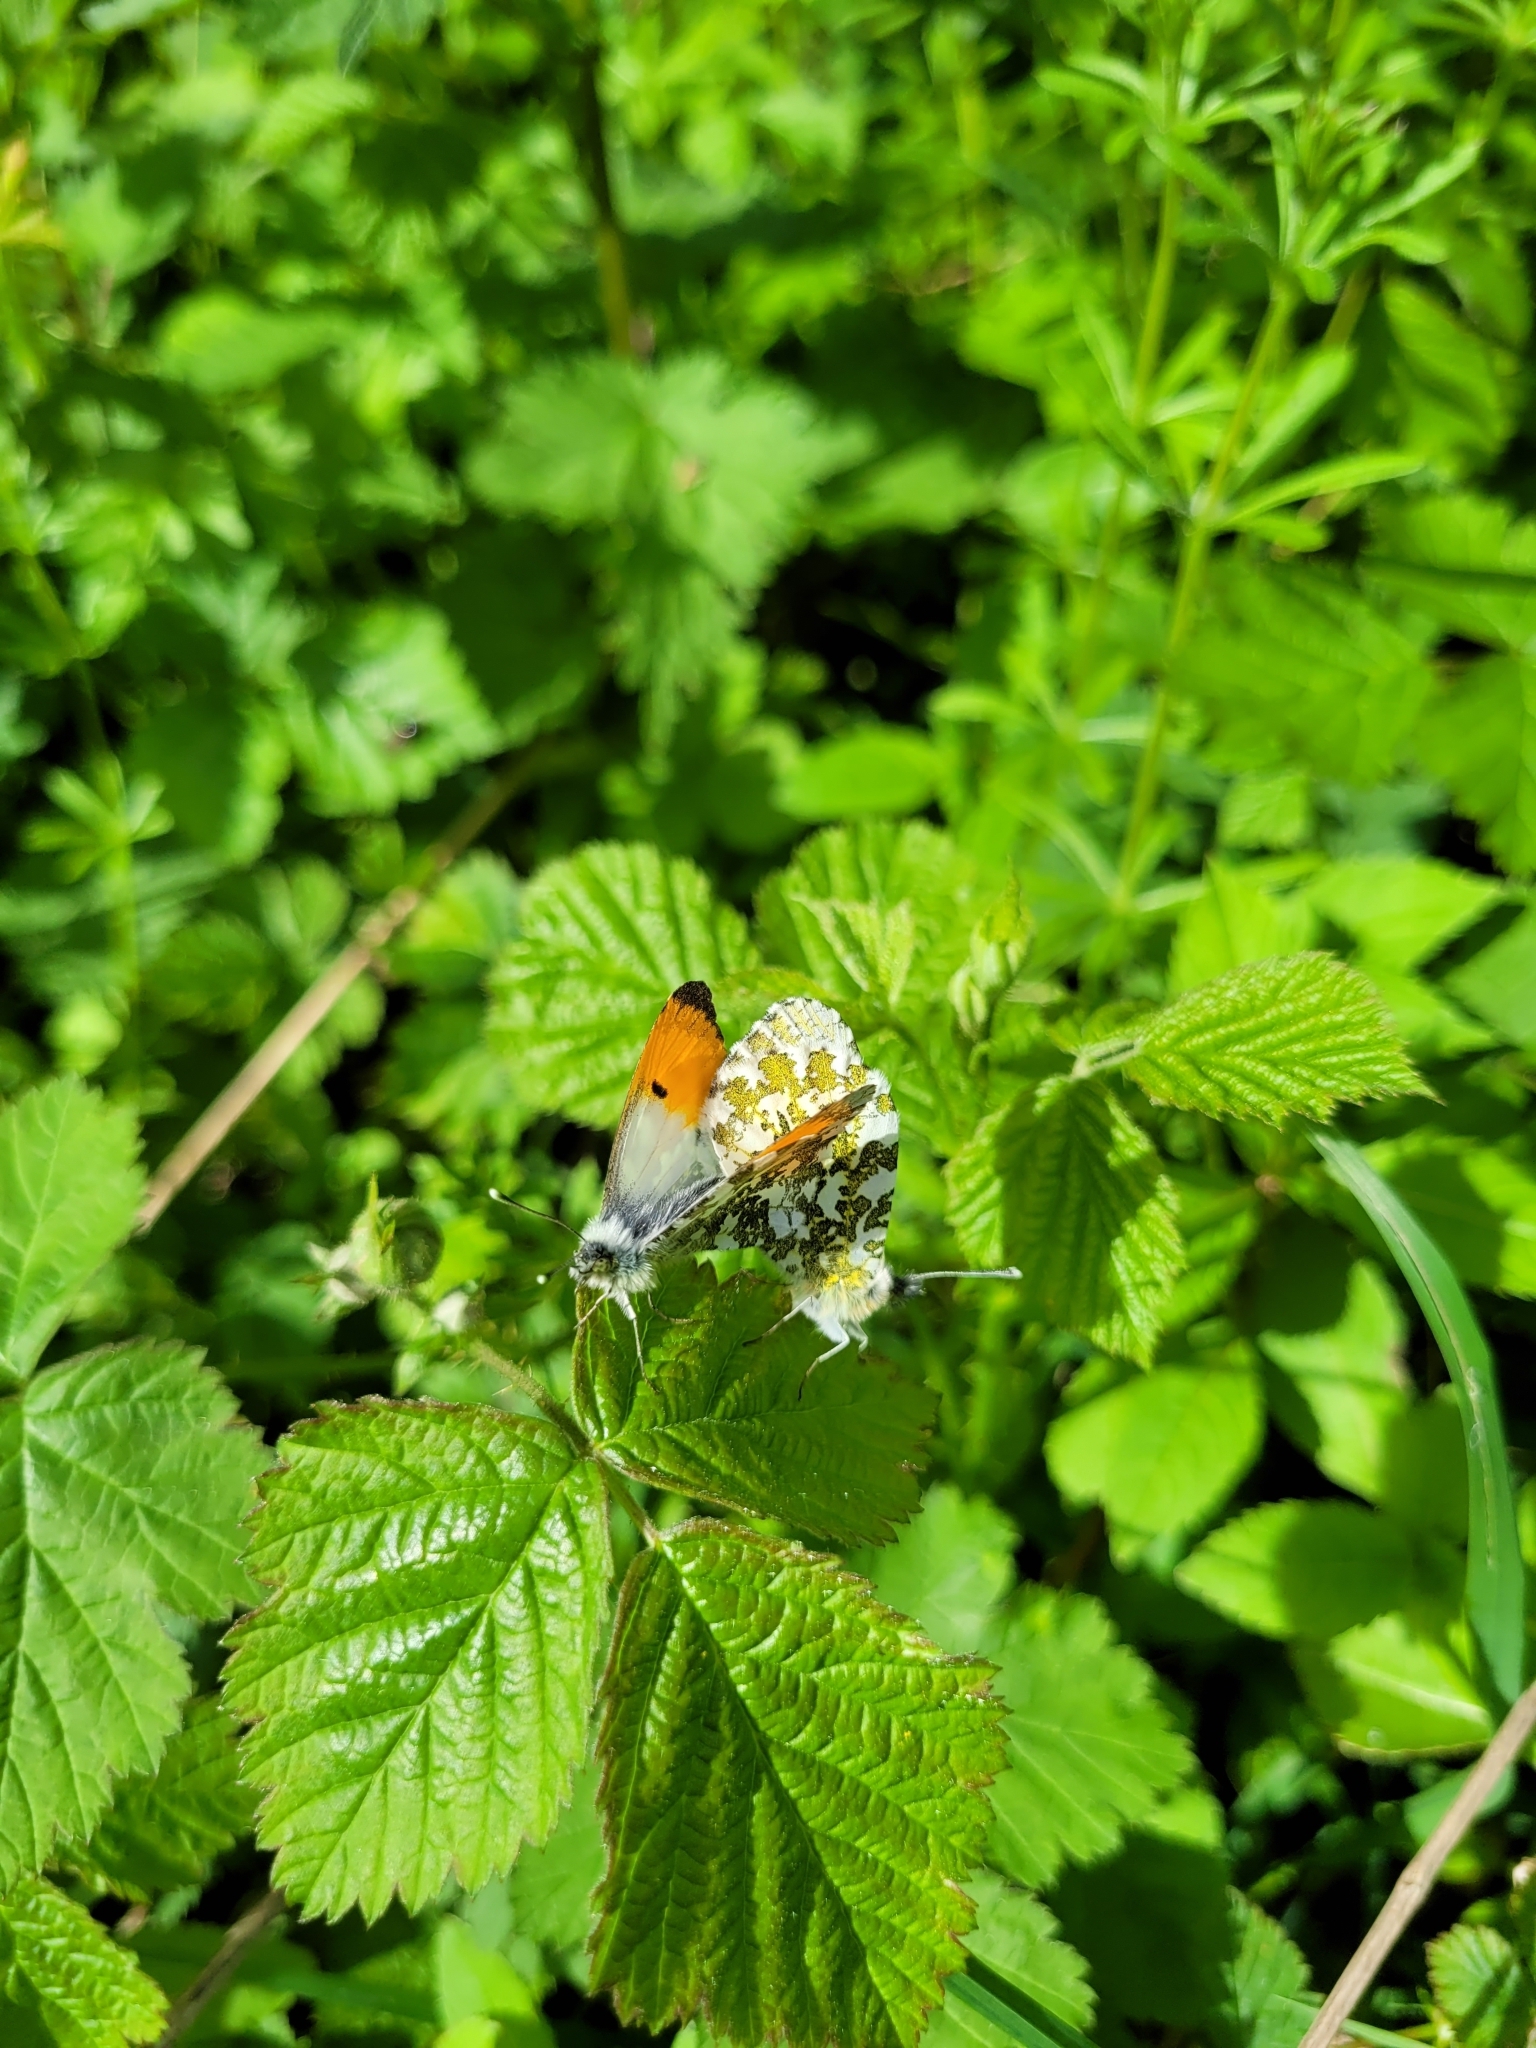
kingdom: Animalia
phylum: Arthropoda
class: Insecta
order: Lepidoptera
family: Pieridae
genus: Anthocharis
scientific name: Anthocharis cardamines
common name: Orange-tip
